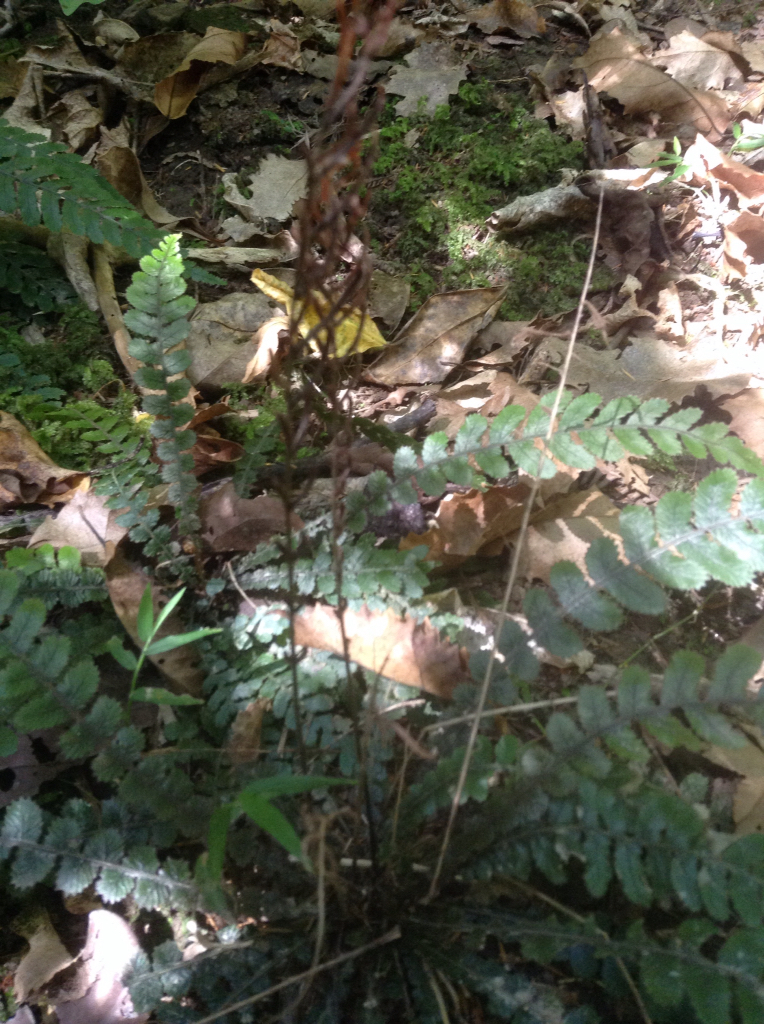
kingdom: Plantae
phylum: Tracheophyta
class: Polypodiopsida
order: Polypodiales
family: Blechnaceae
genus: Austroblechnum
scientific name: Austroblechnum membranaceum
